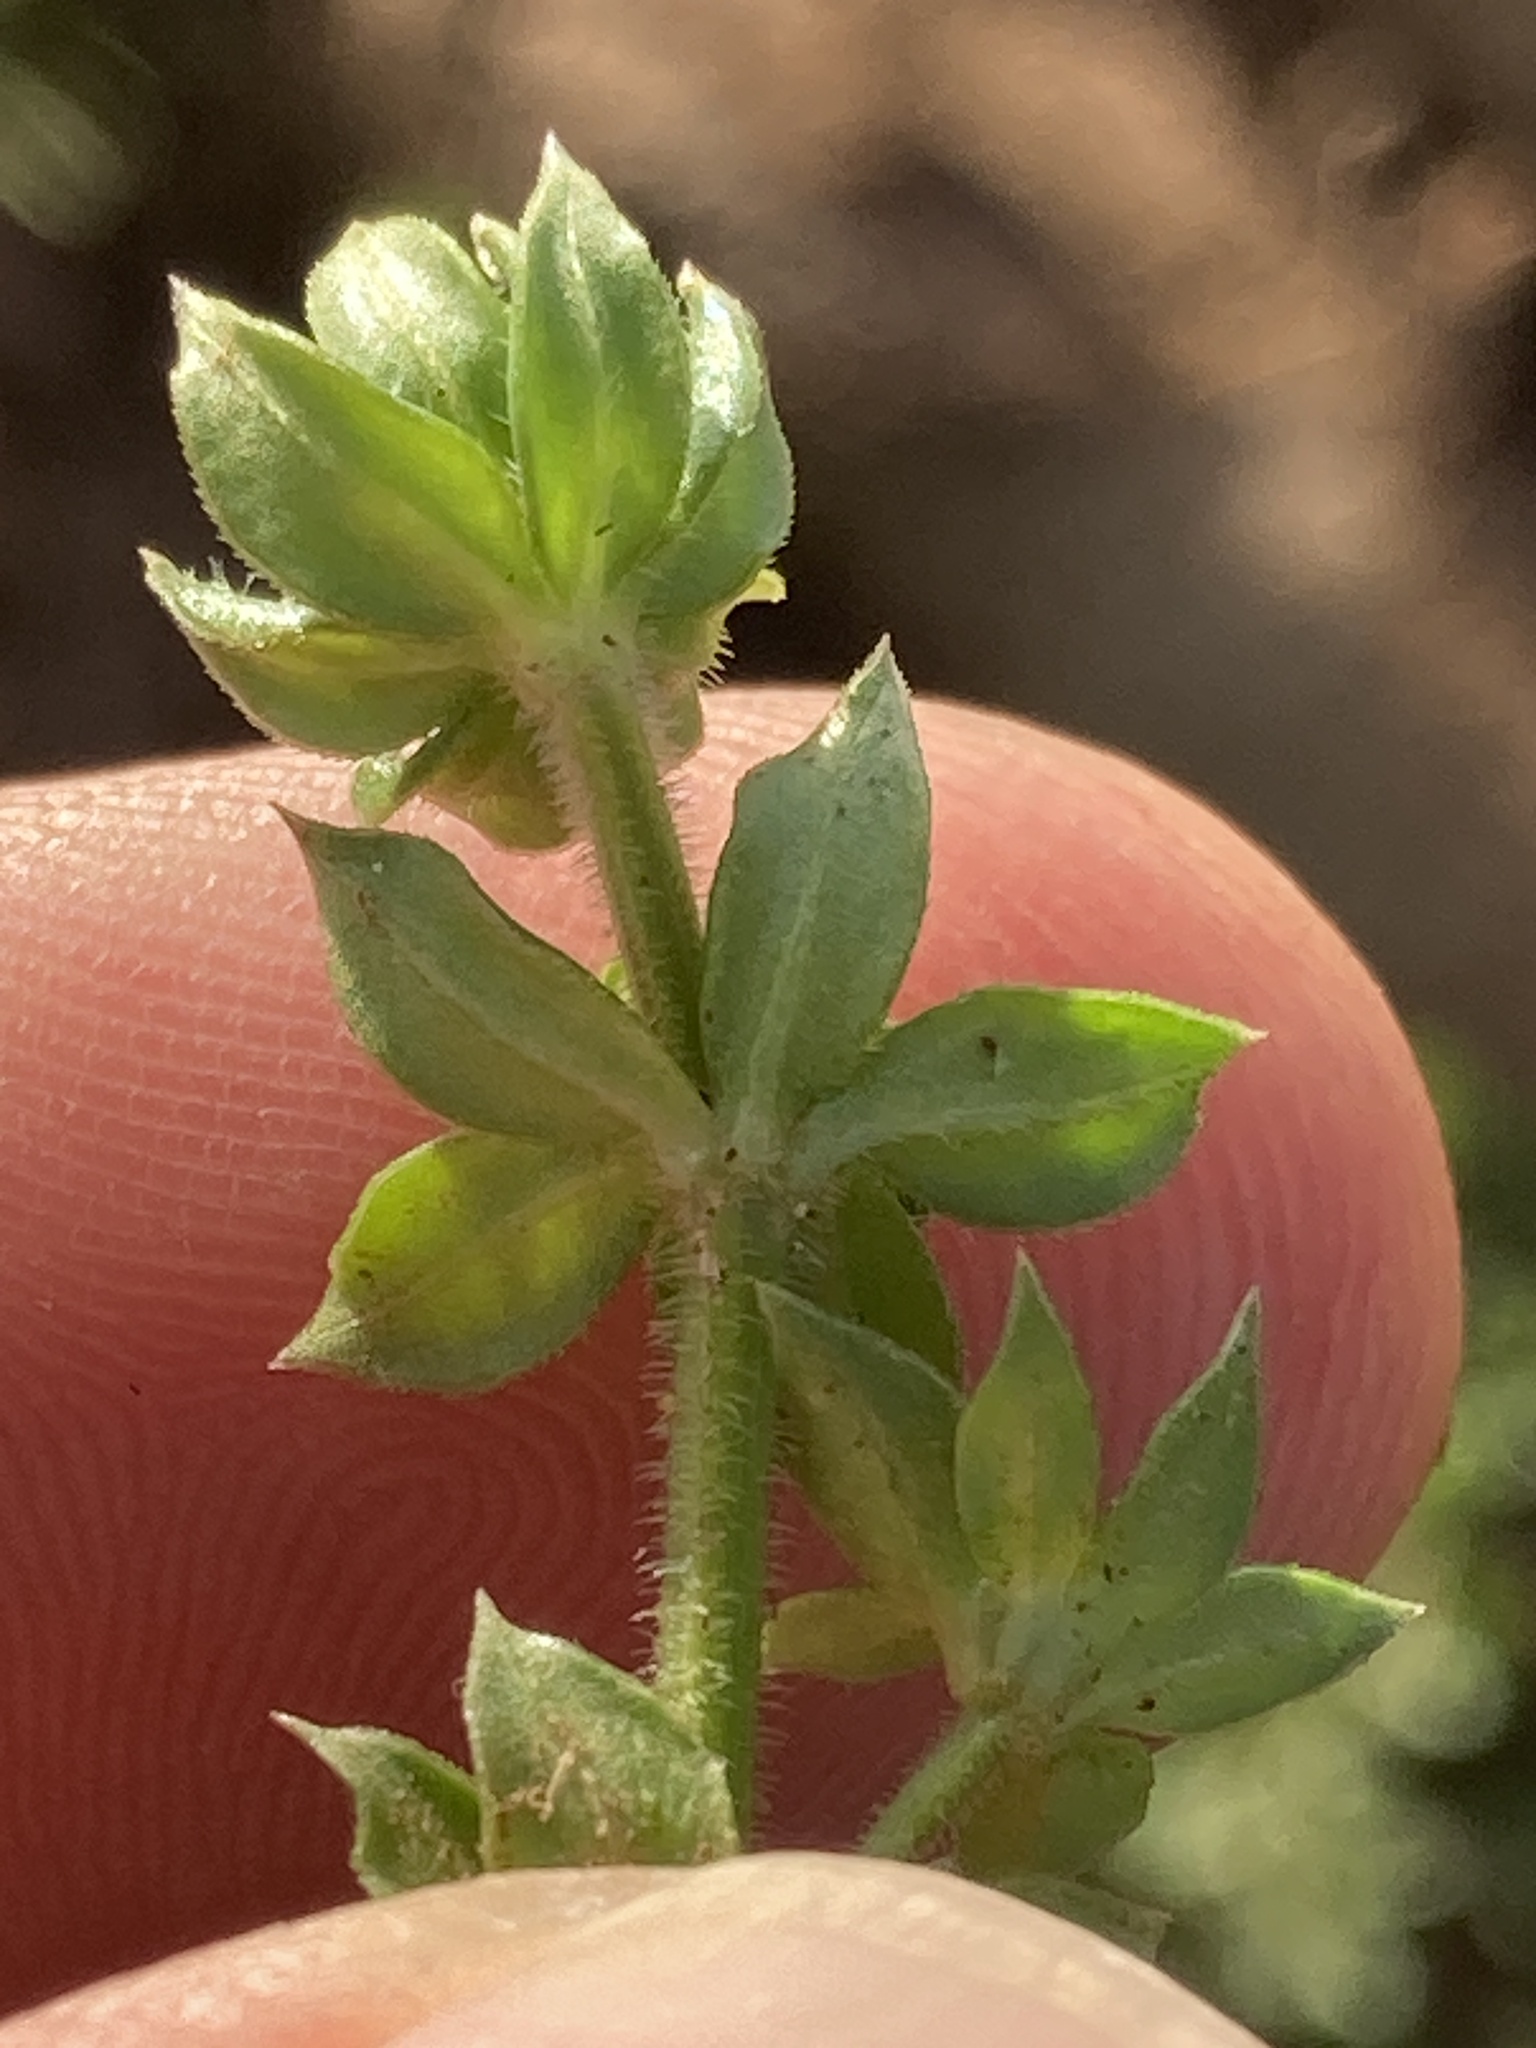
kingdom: Plantae
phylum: Tracheophyta
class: Magnoliopsida
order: Gentianales
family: Rubiaceae
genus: Sherardia
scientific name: Sherardia arvensis
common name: Field madder
